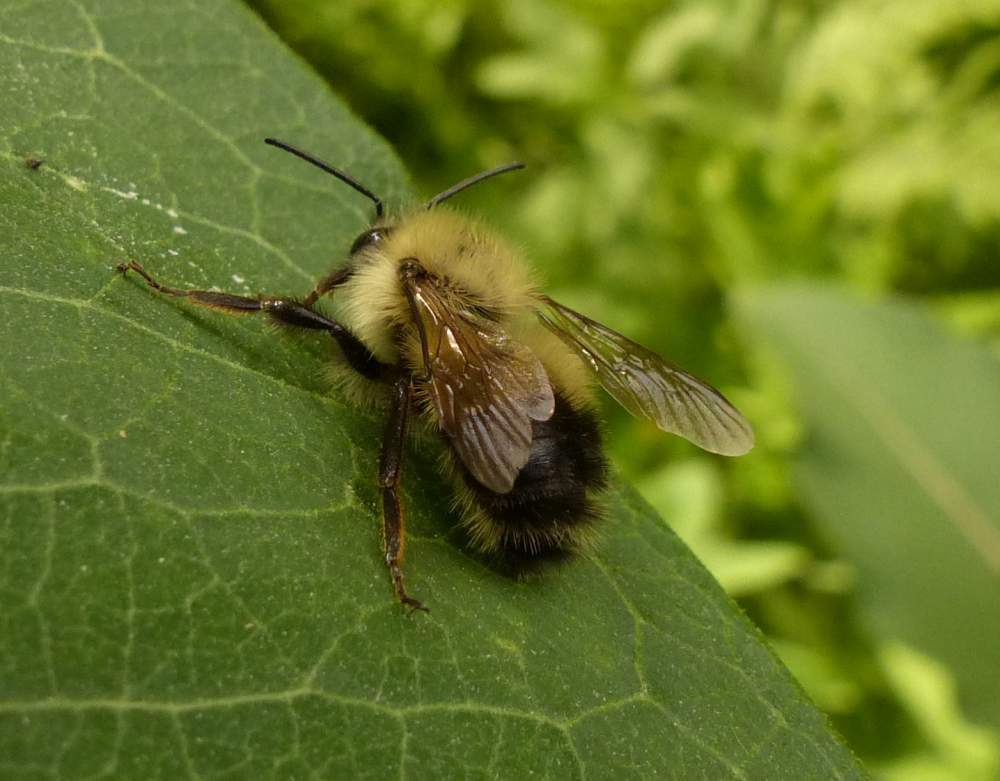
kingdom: Animalia
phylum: Arthropoda
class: Insecta
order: Hymenoptera
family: Apidae
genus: Pyrobombus
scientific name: Pyrobombus
